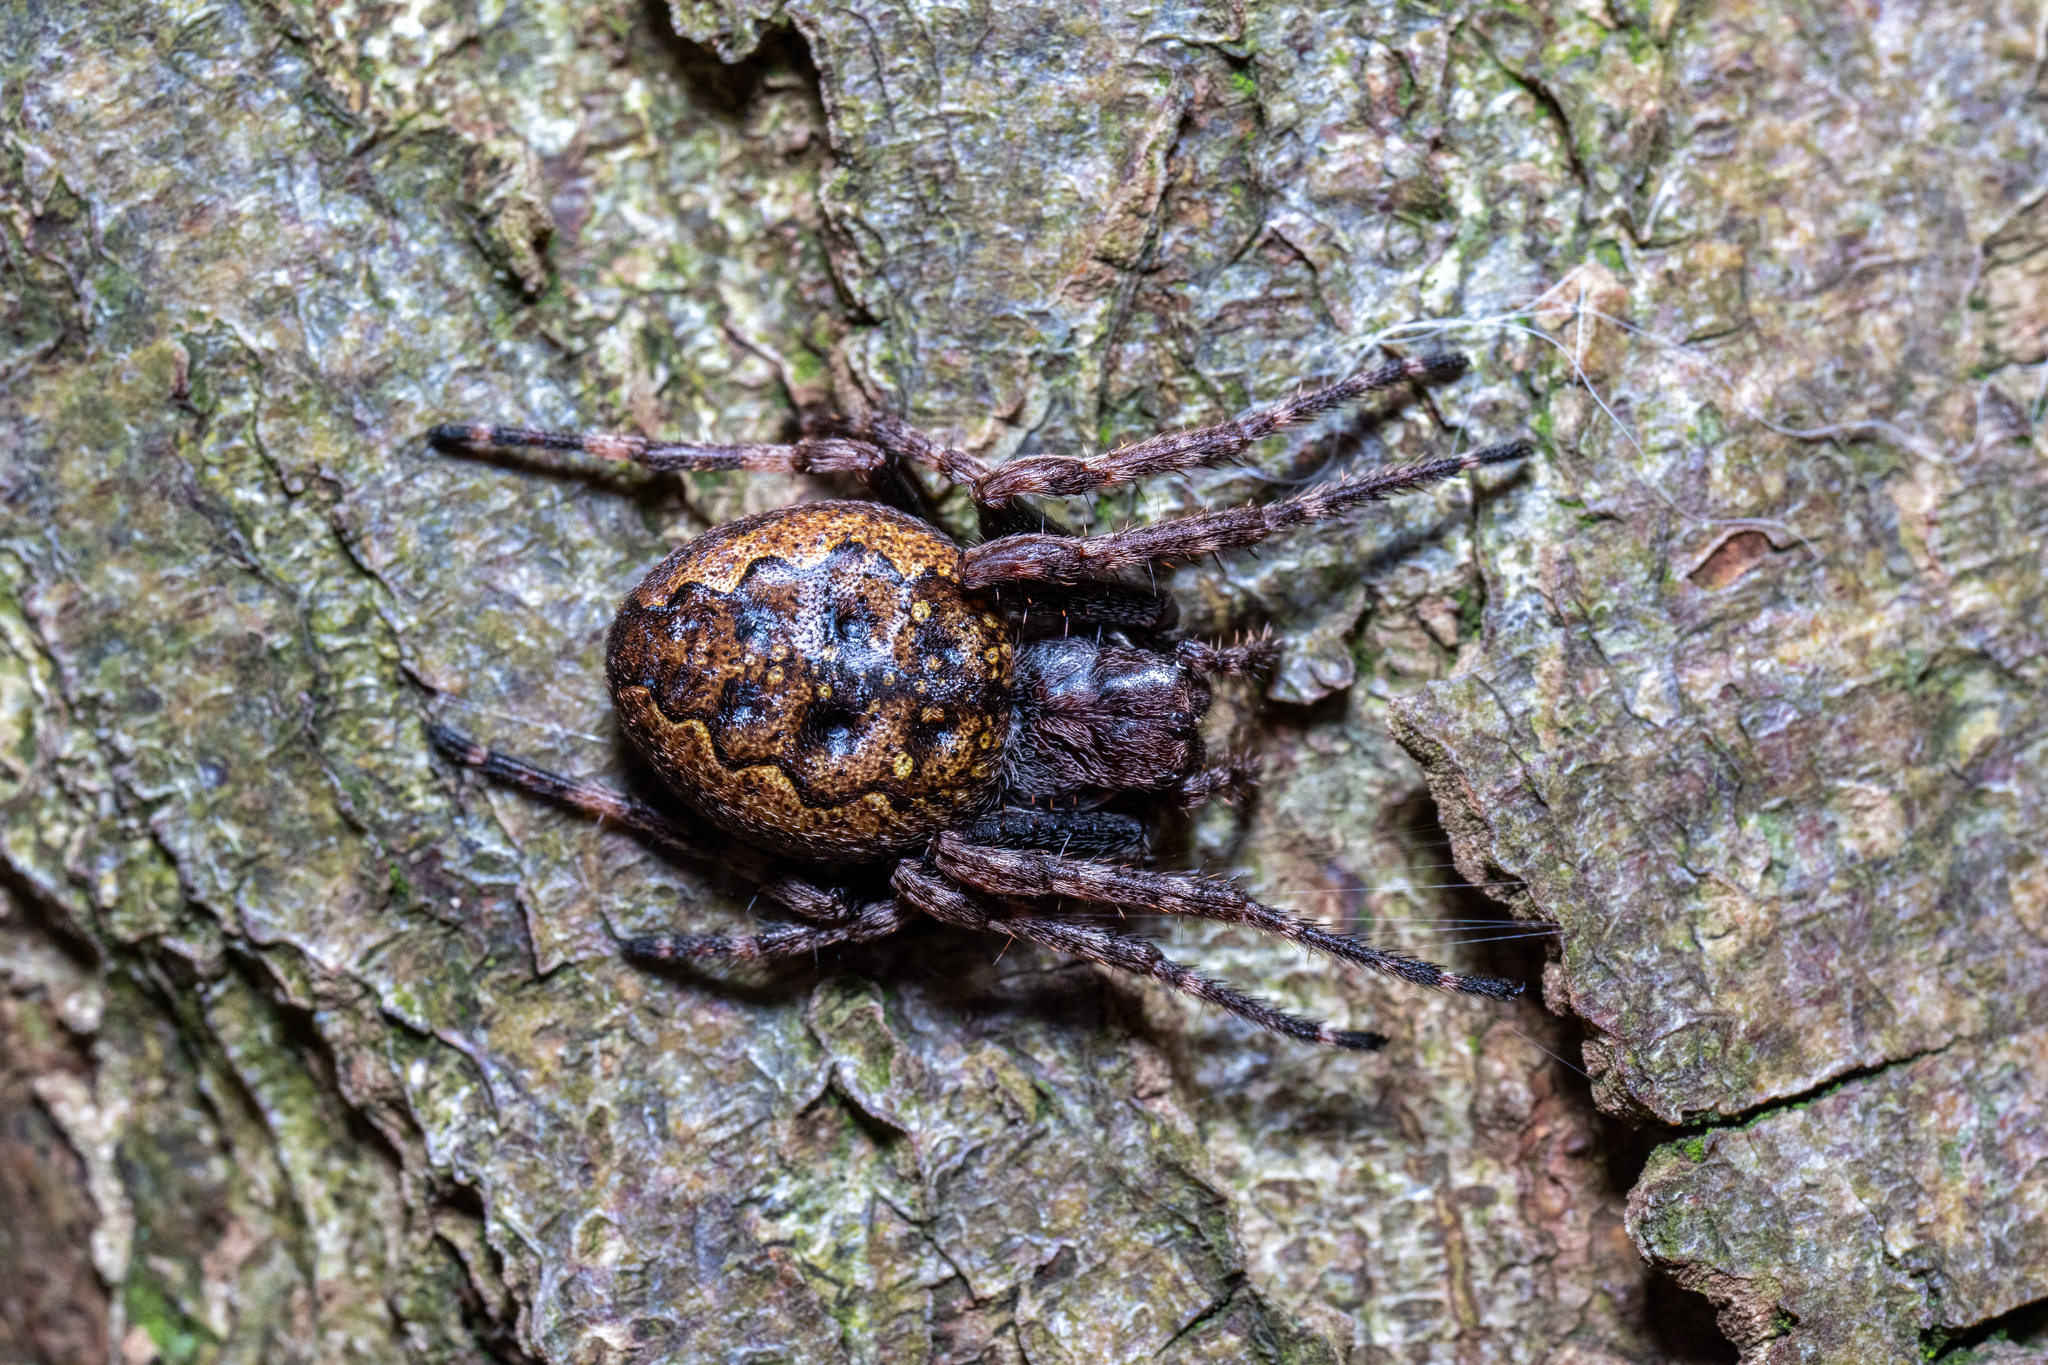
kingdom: Animalia
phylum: Arthropoda
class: Arachnida
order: Araneae
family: Araneidae
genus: Nuctenea
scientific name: Nuctenea umbratica
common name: Toad spider
